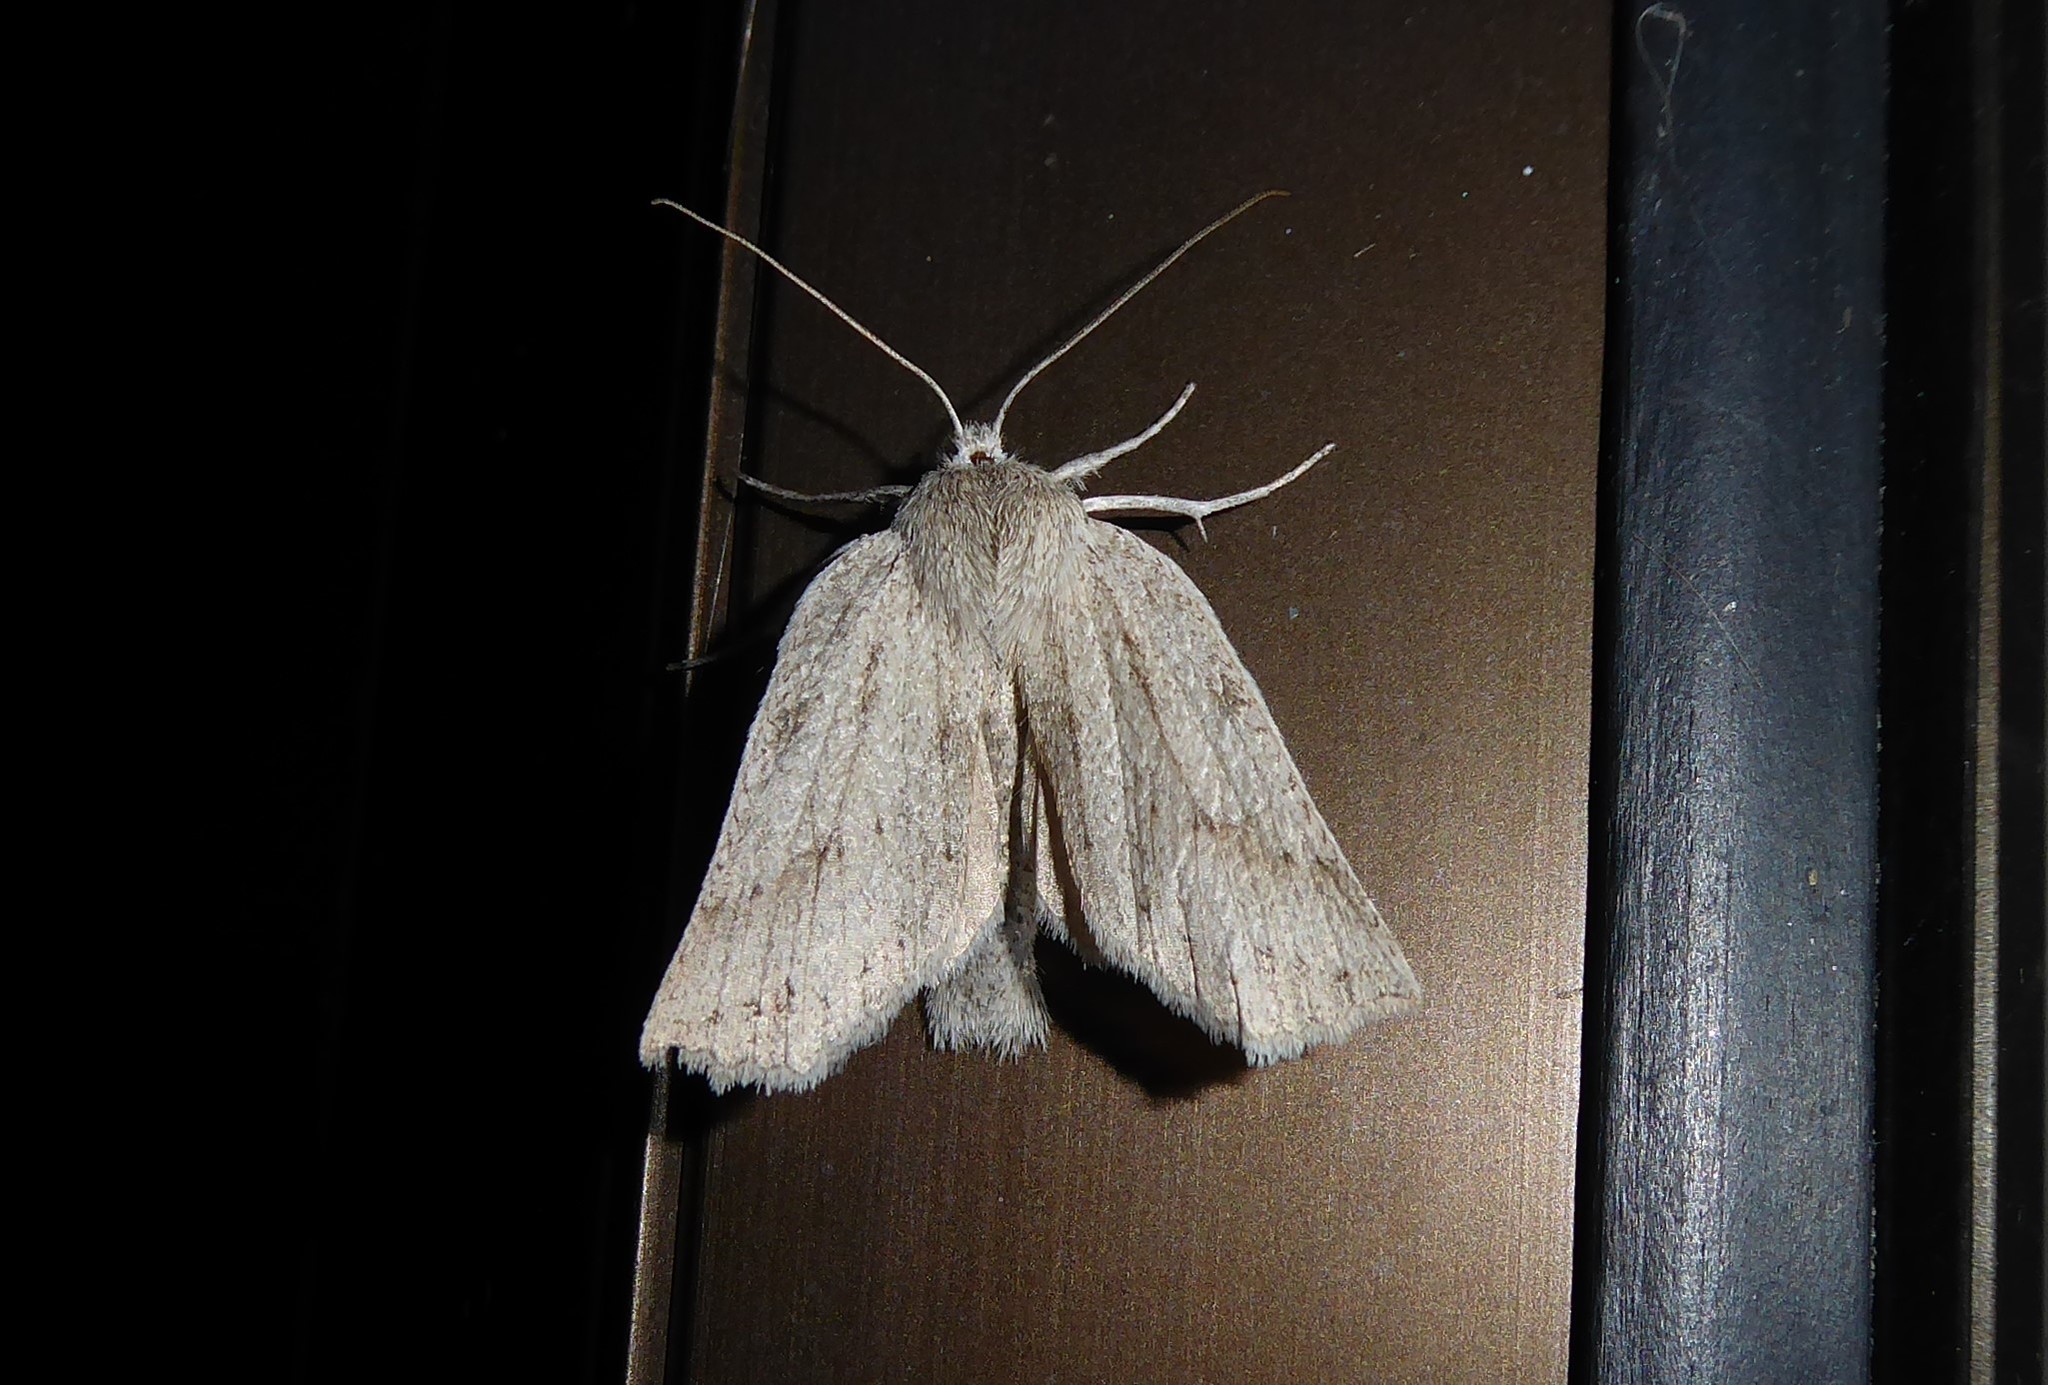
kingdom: Animalia
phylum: Arthropoda
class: Insecta
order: Lepidoptera
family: Geometridae
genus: Declana
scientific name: Declana leptomera
